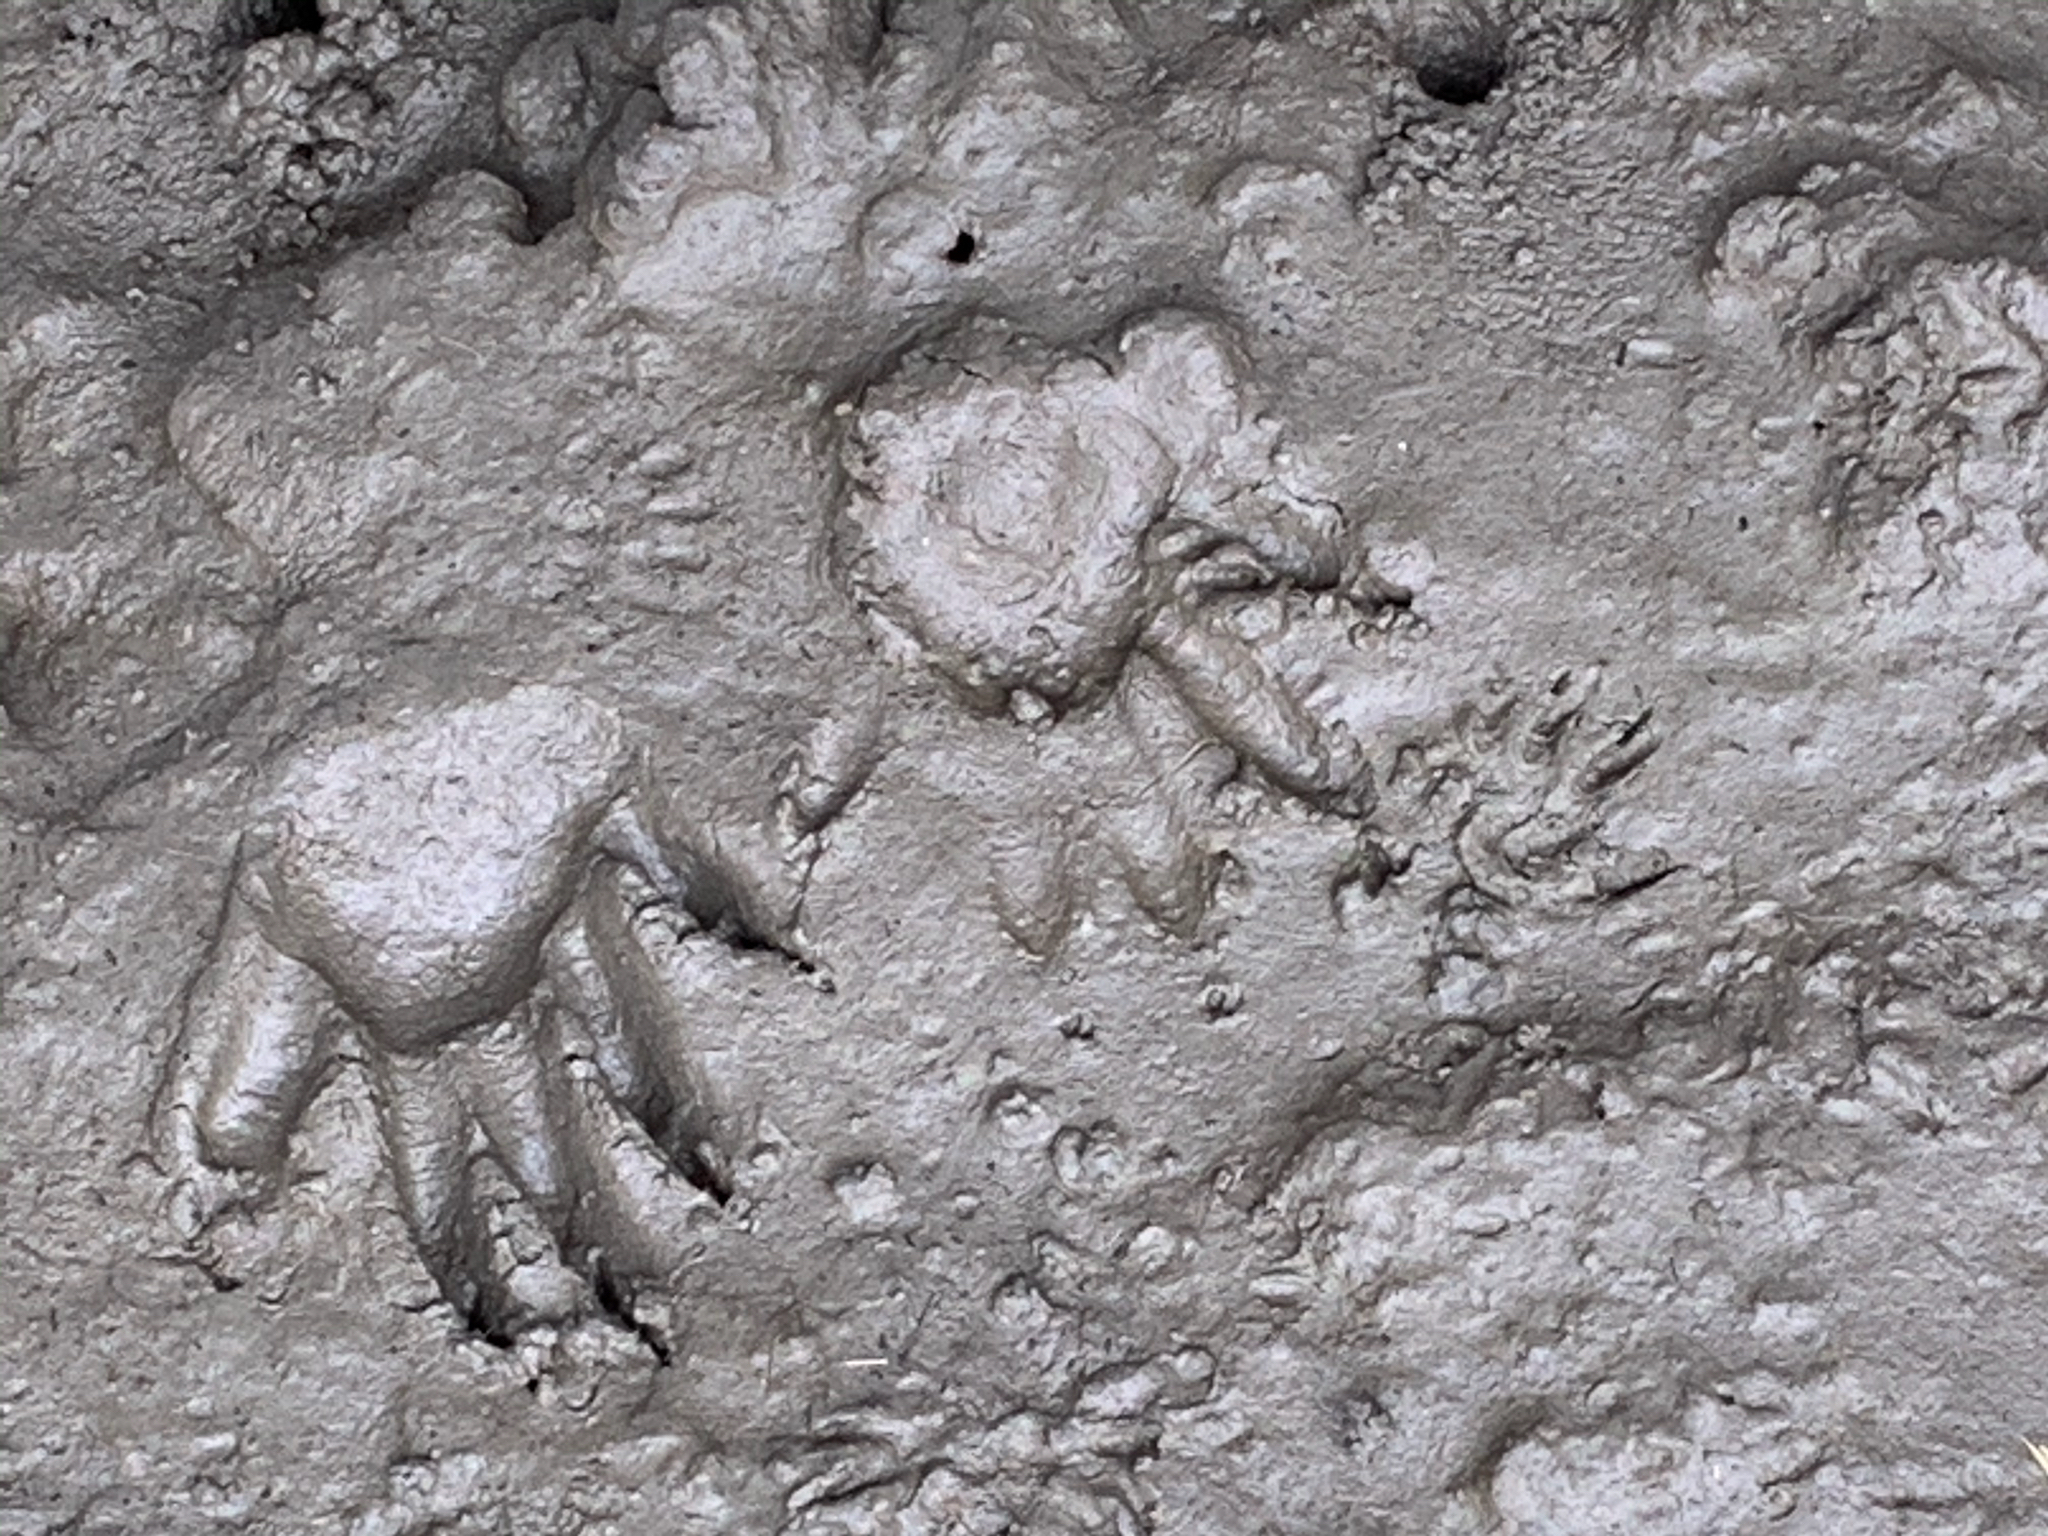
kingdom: Animalia
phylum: Chordata
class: Mammalia
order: Carnivora
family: Procyonidae
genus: Procyon
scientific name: Procyon lotor
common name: Raccoon
